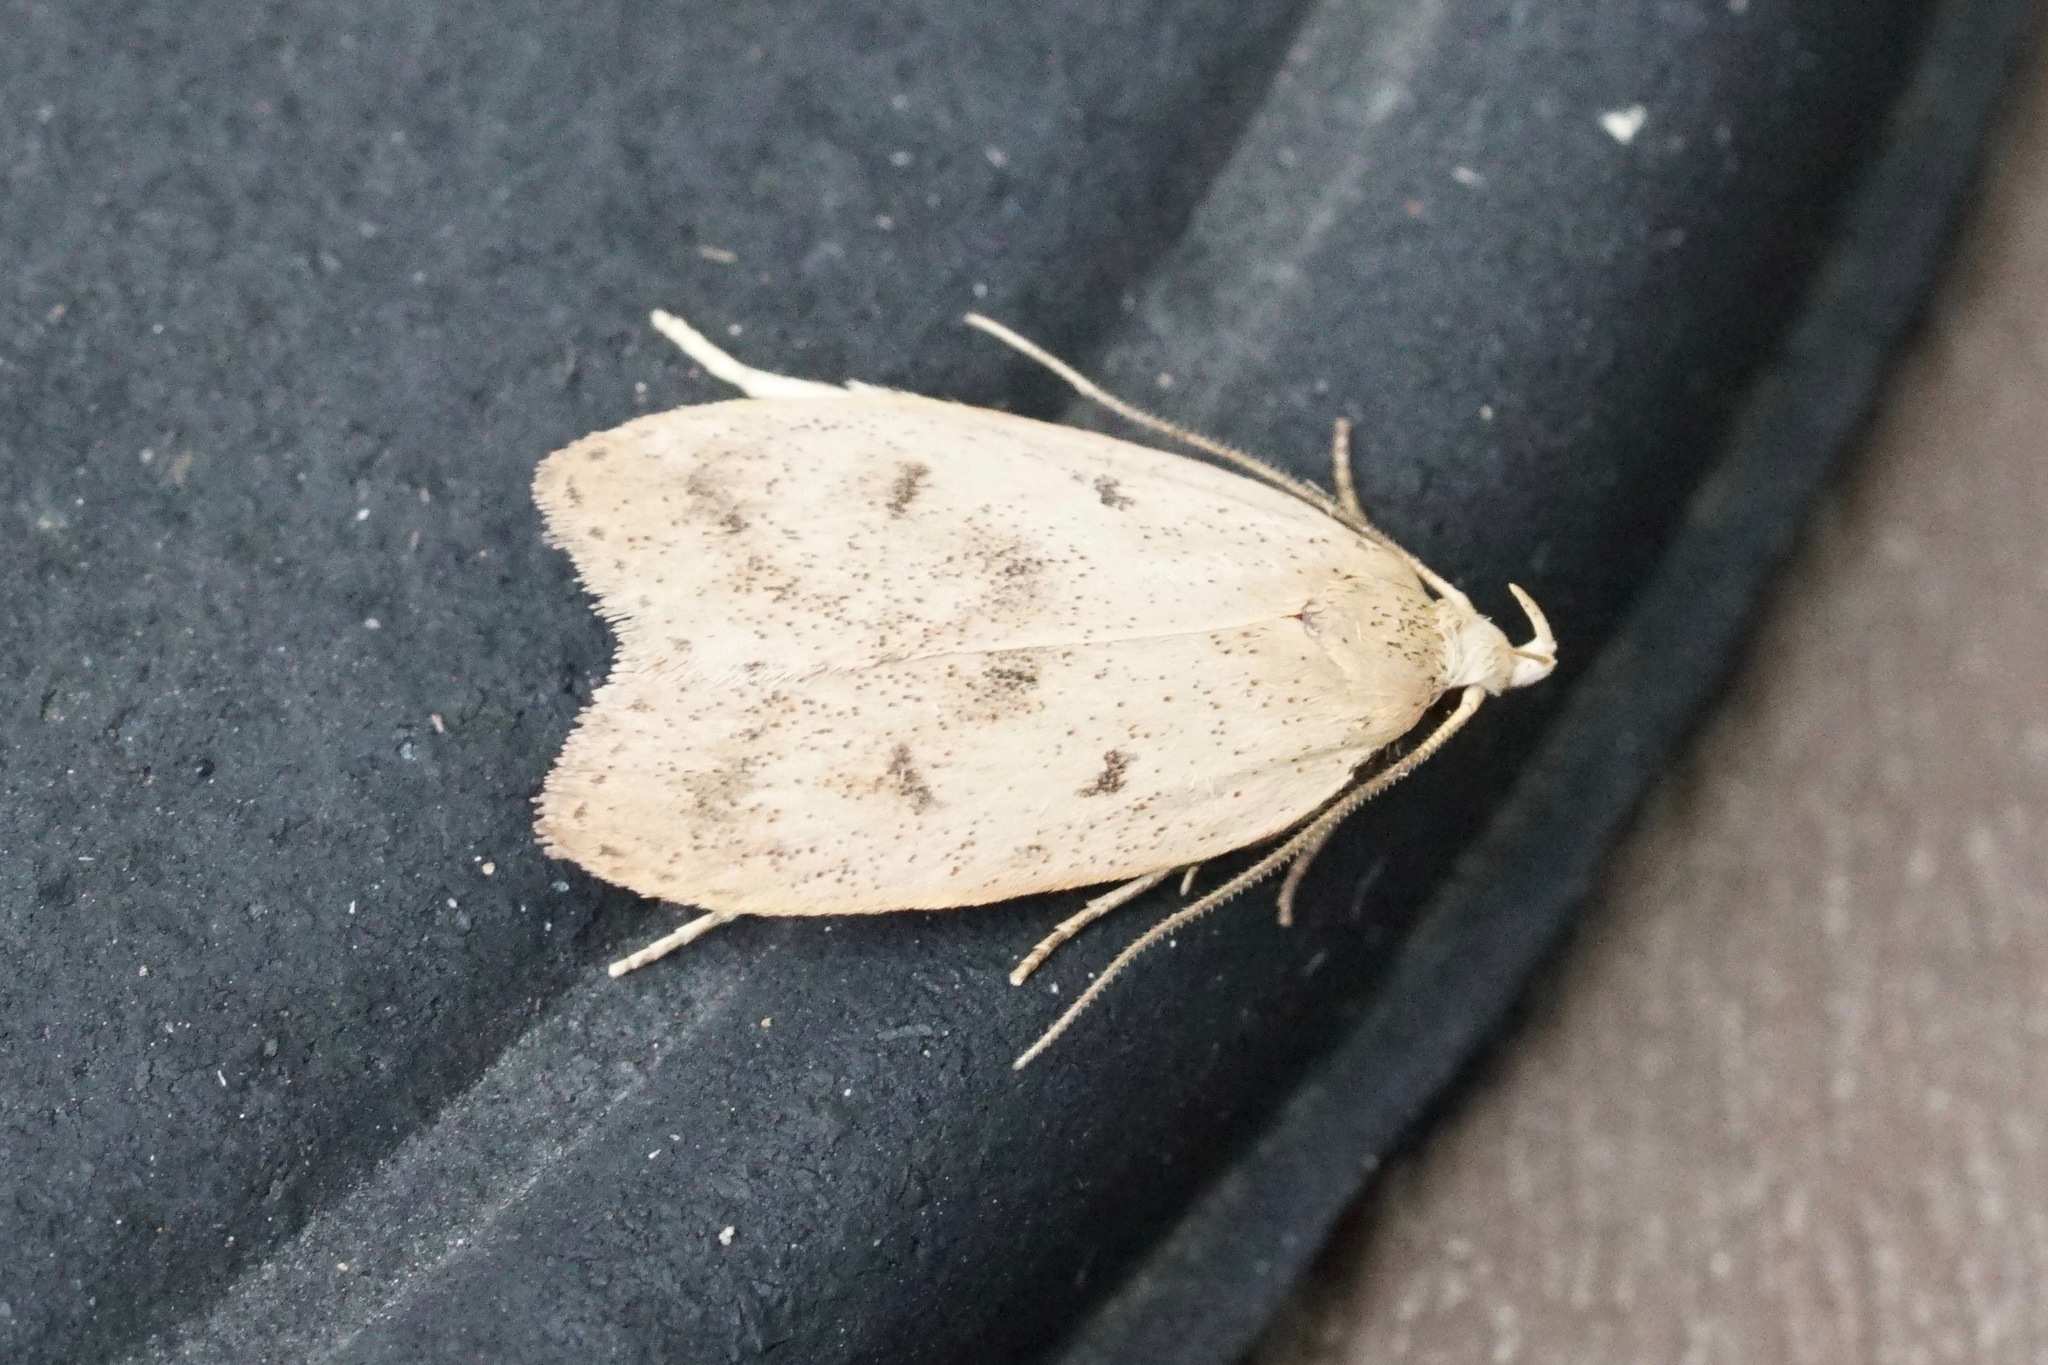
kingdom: Animalia
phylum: Arthropoda
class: Insecta
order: Lepidoptera
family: Peleopodidae
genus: Machimia
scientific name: Machimia tentoriferella
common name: Gold-striped leaftier moth
